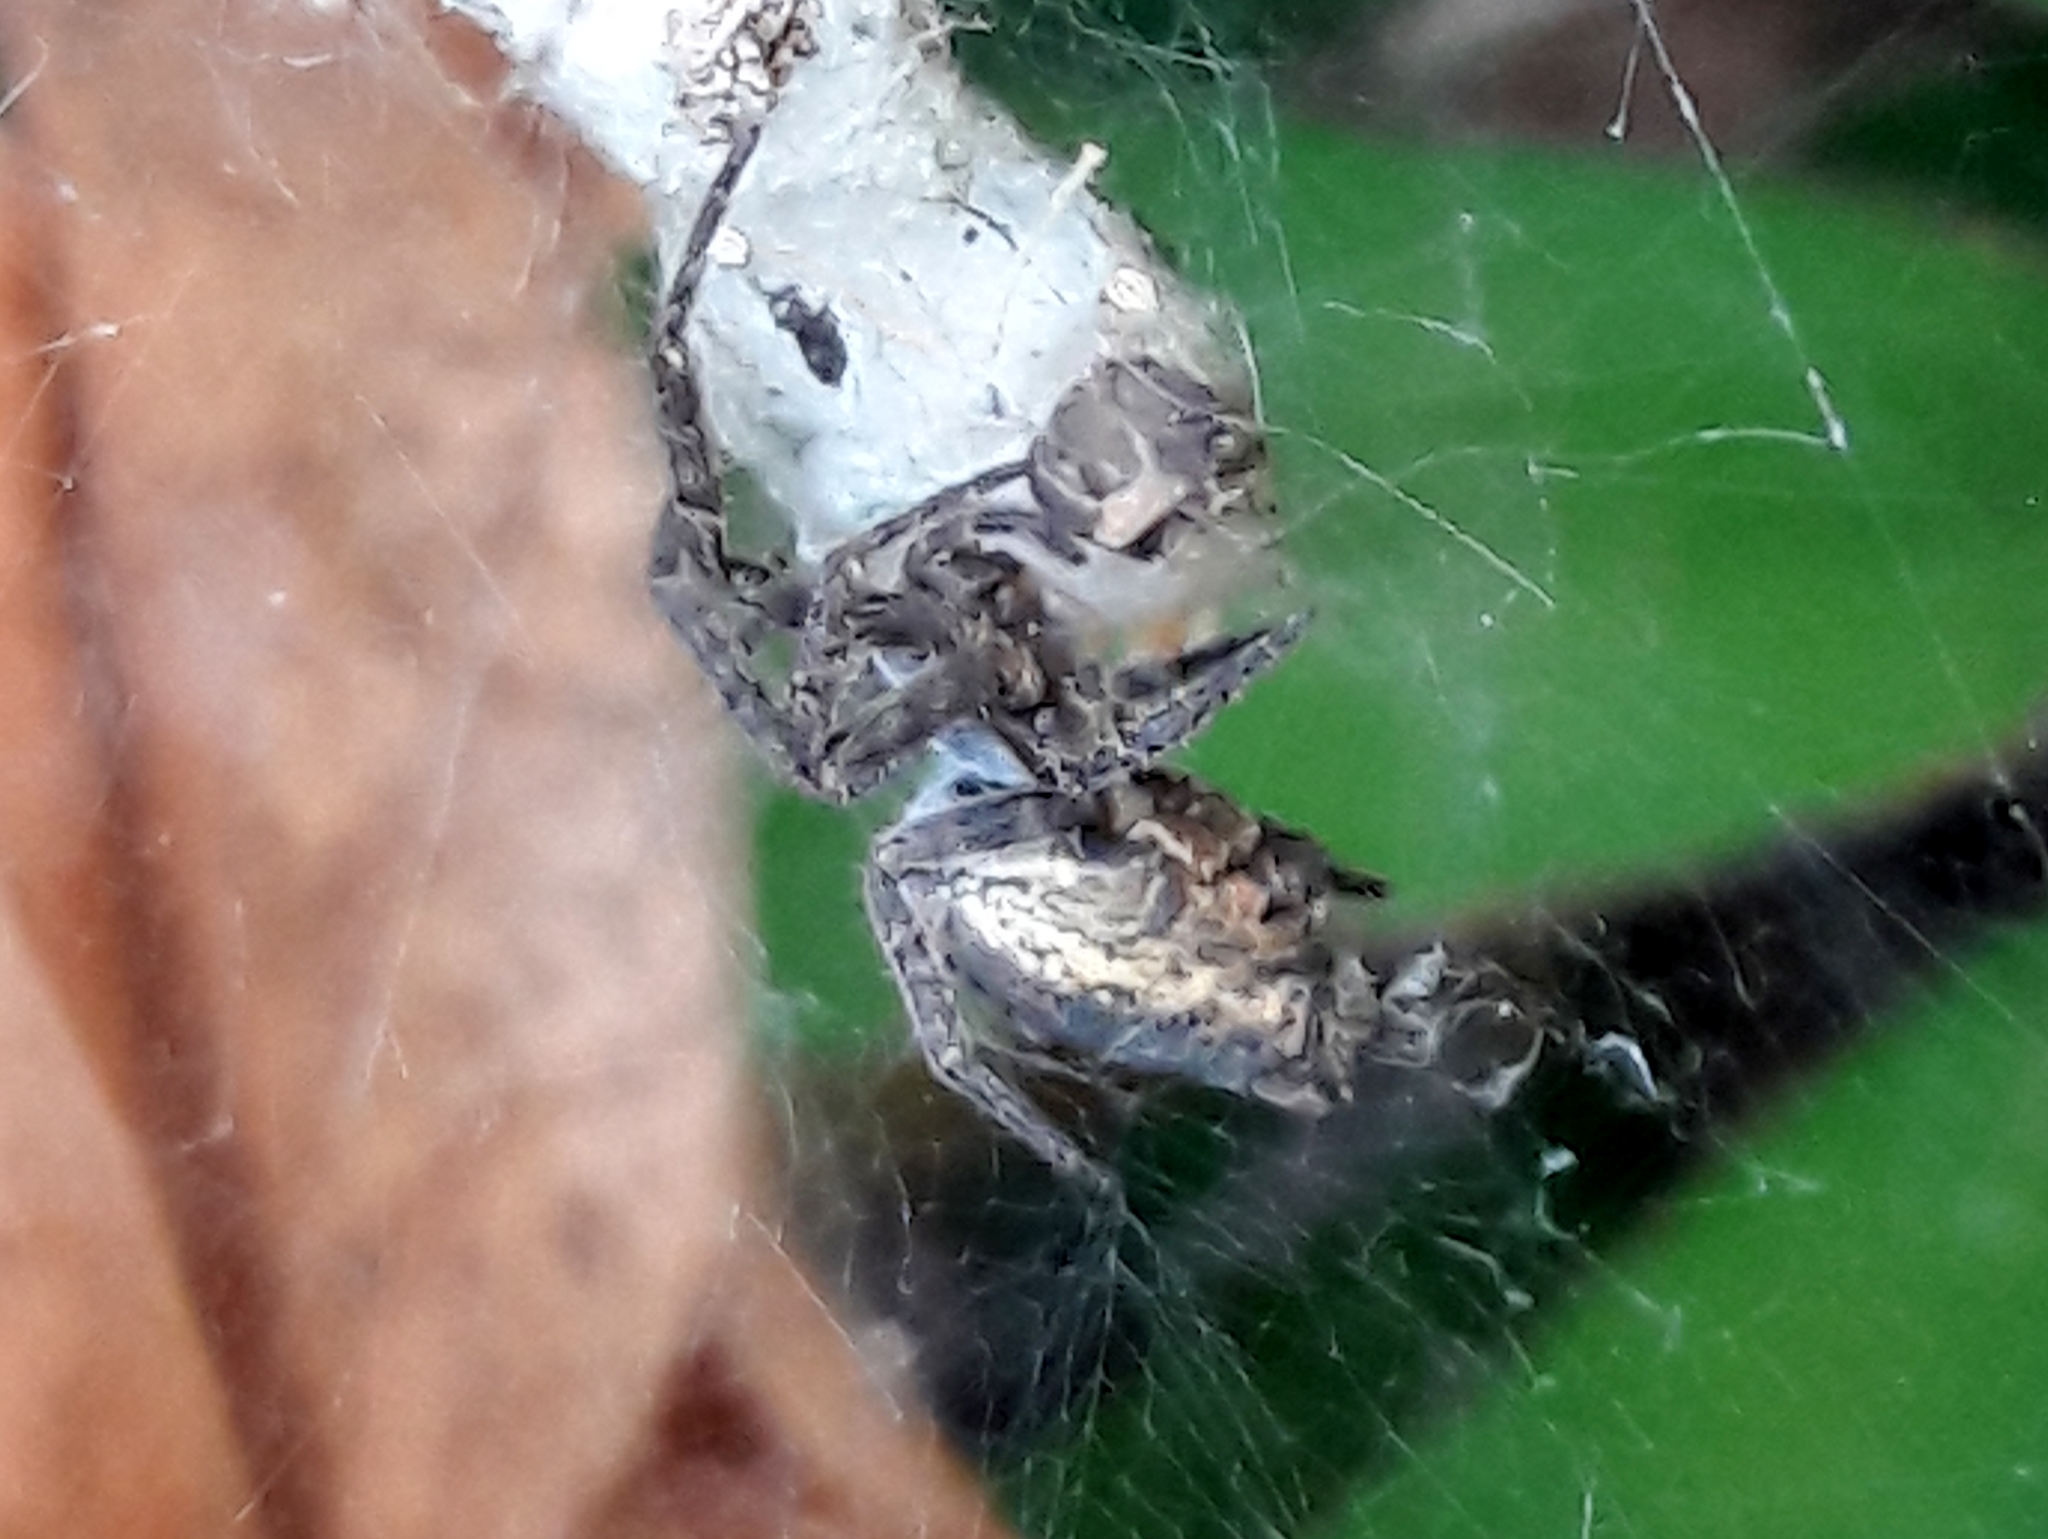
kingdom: Animalia
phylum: Arthropoda
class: Arachnida
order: Araneae
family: Araneidae
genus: Cyrtophora
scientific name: Cyrtophora citricola
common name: Orb weavers
